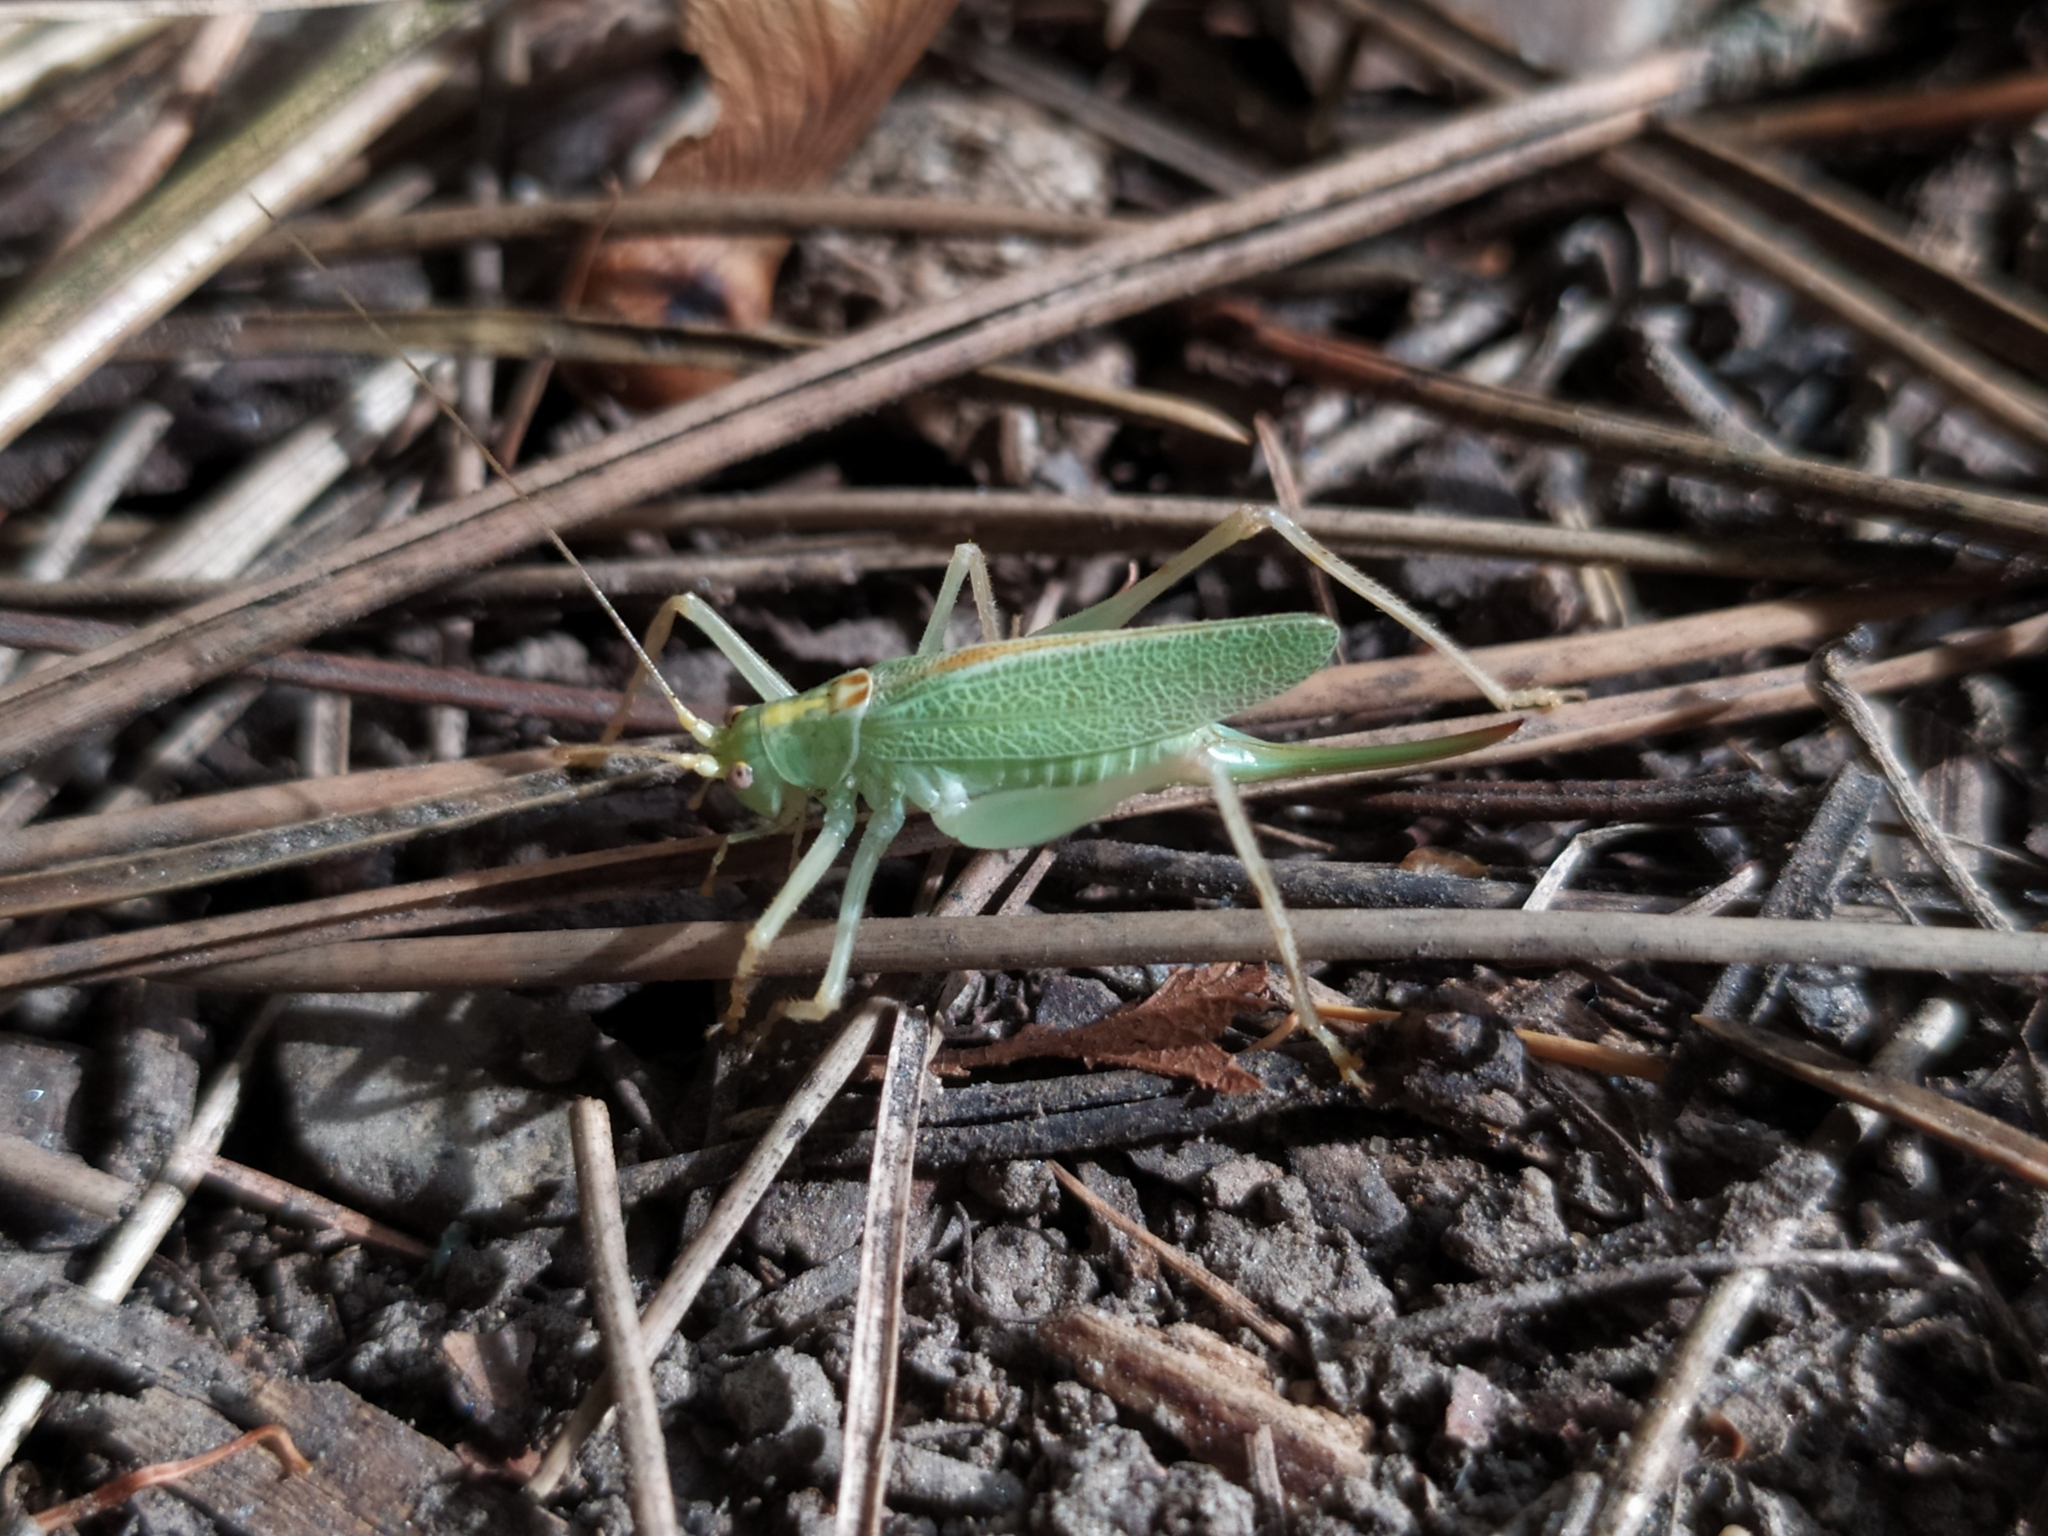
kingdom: Animalia
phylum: Arthropoda
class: Insecta
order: Orthoptera
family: Tettigoniidae
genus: Meconema
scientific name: Meconema thalassinum
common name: Oak bush-cricket
